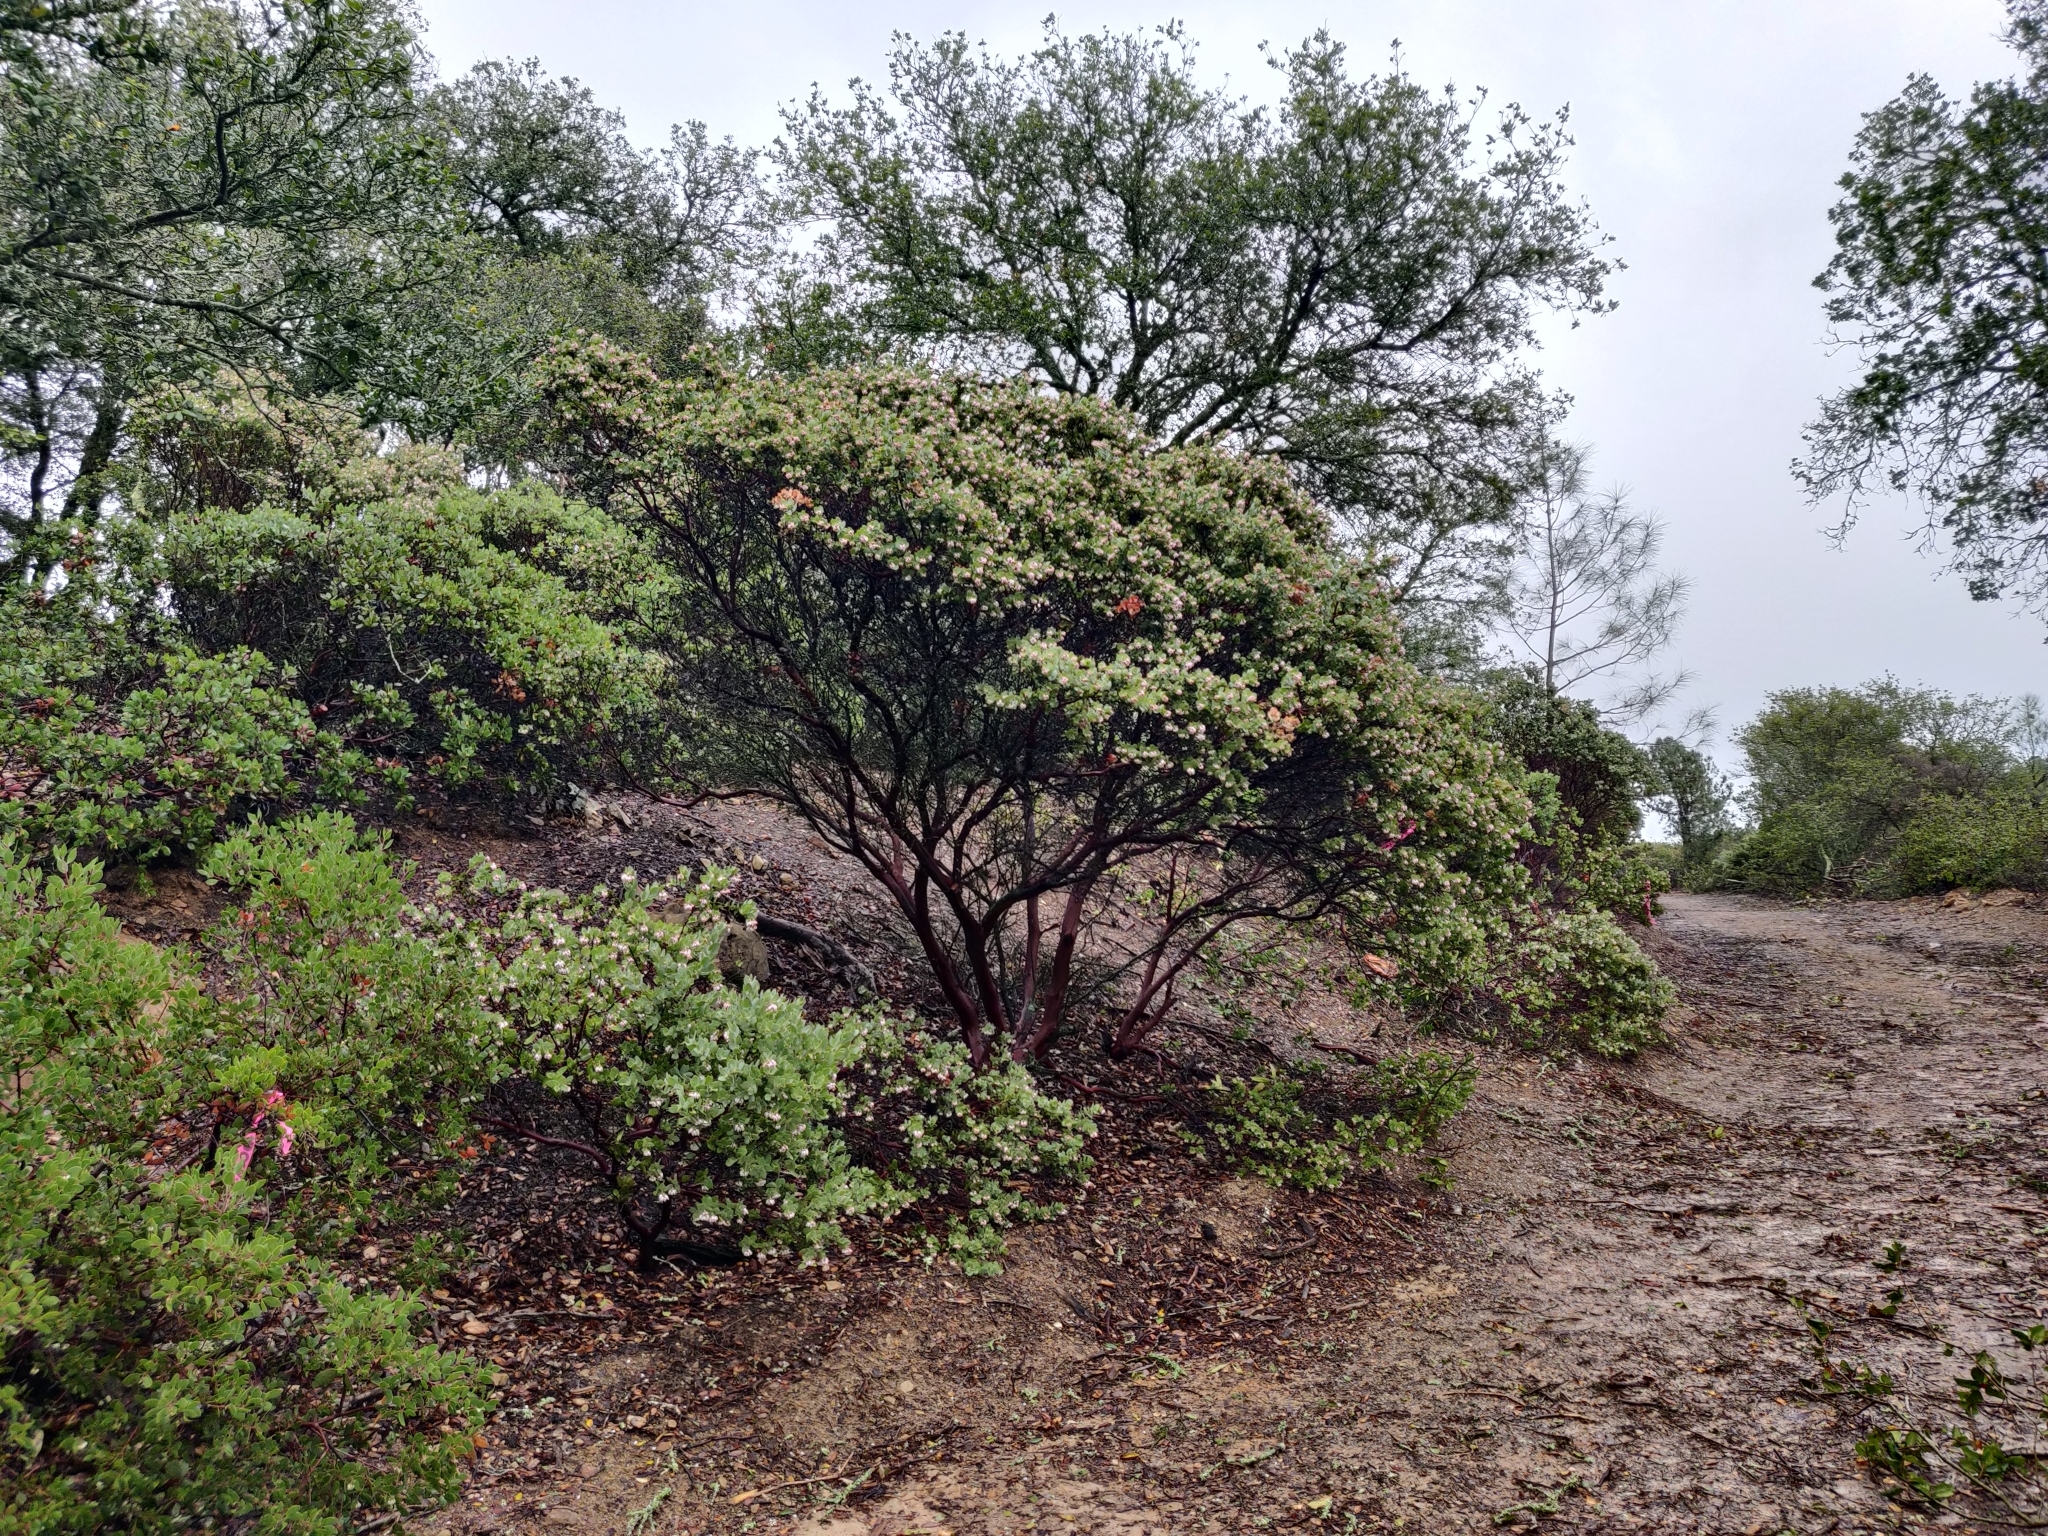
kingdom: Plantae
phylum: Tracheophyta
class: Magnoliopsida
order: Ericales
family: Ericaceae
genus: Arctostaphylos
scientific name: Arctostaphylos auriculata
